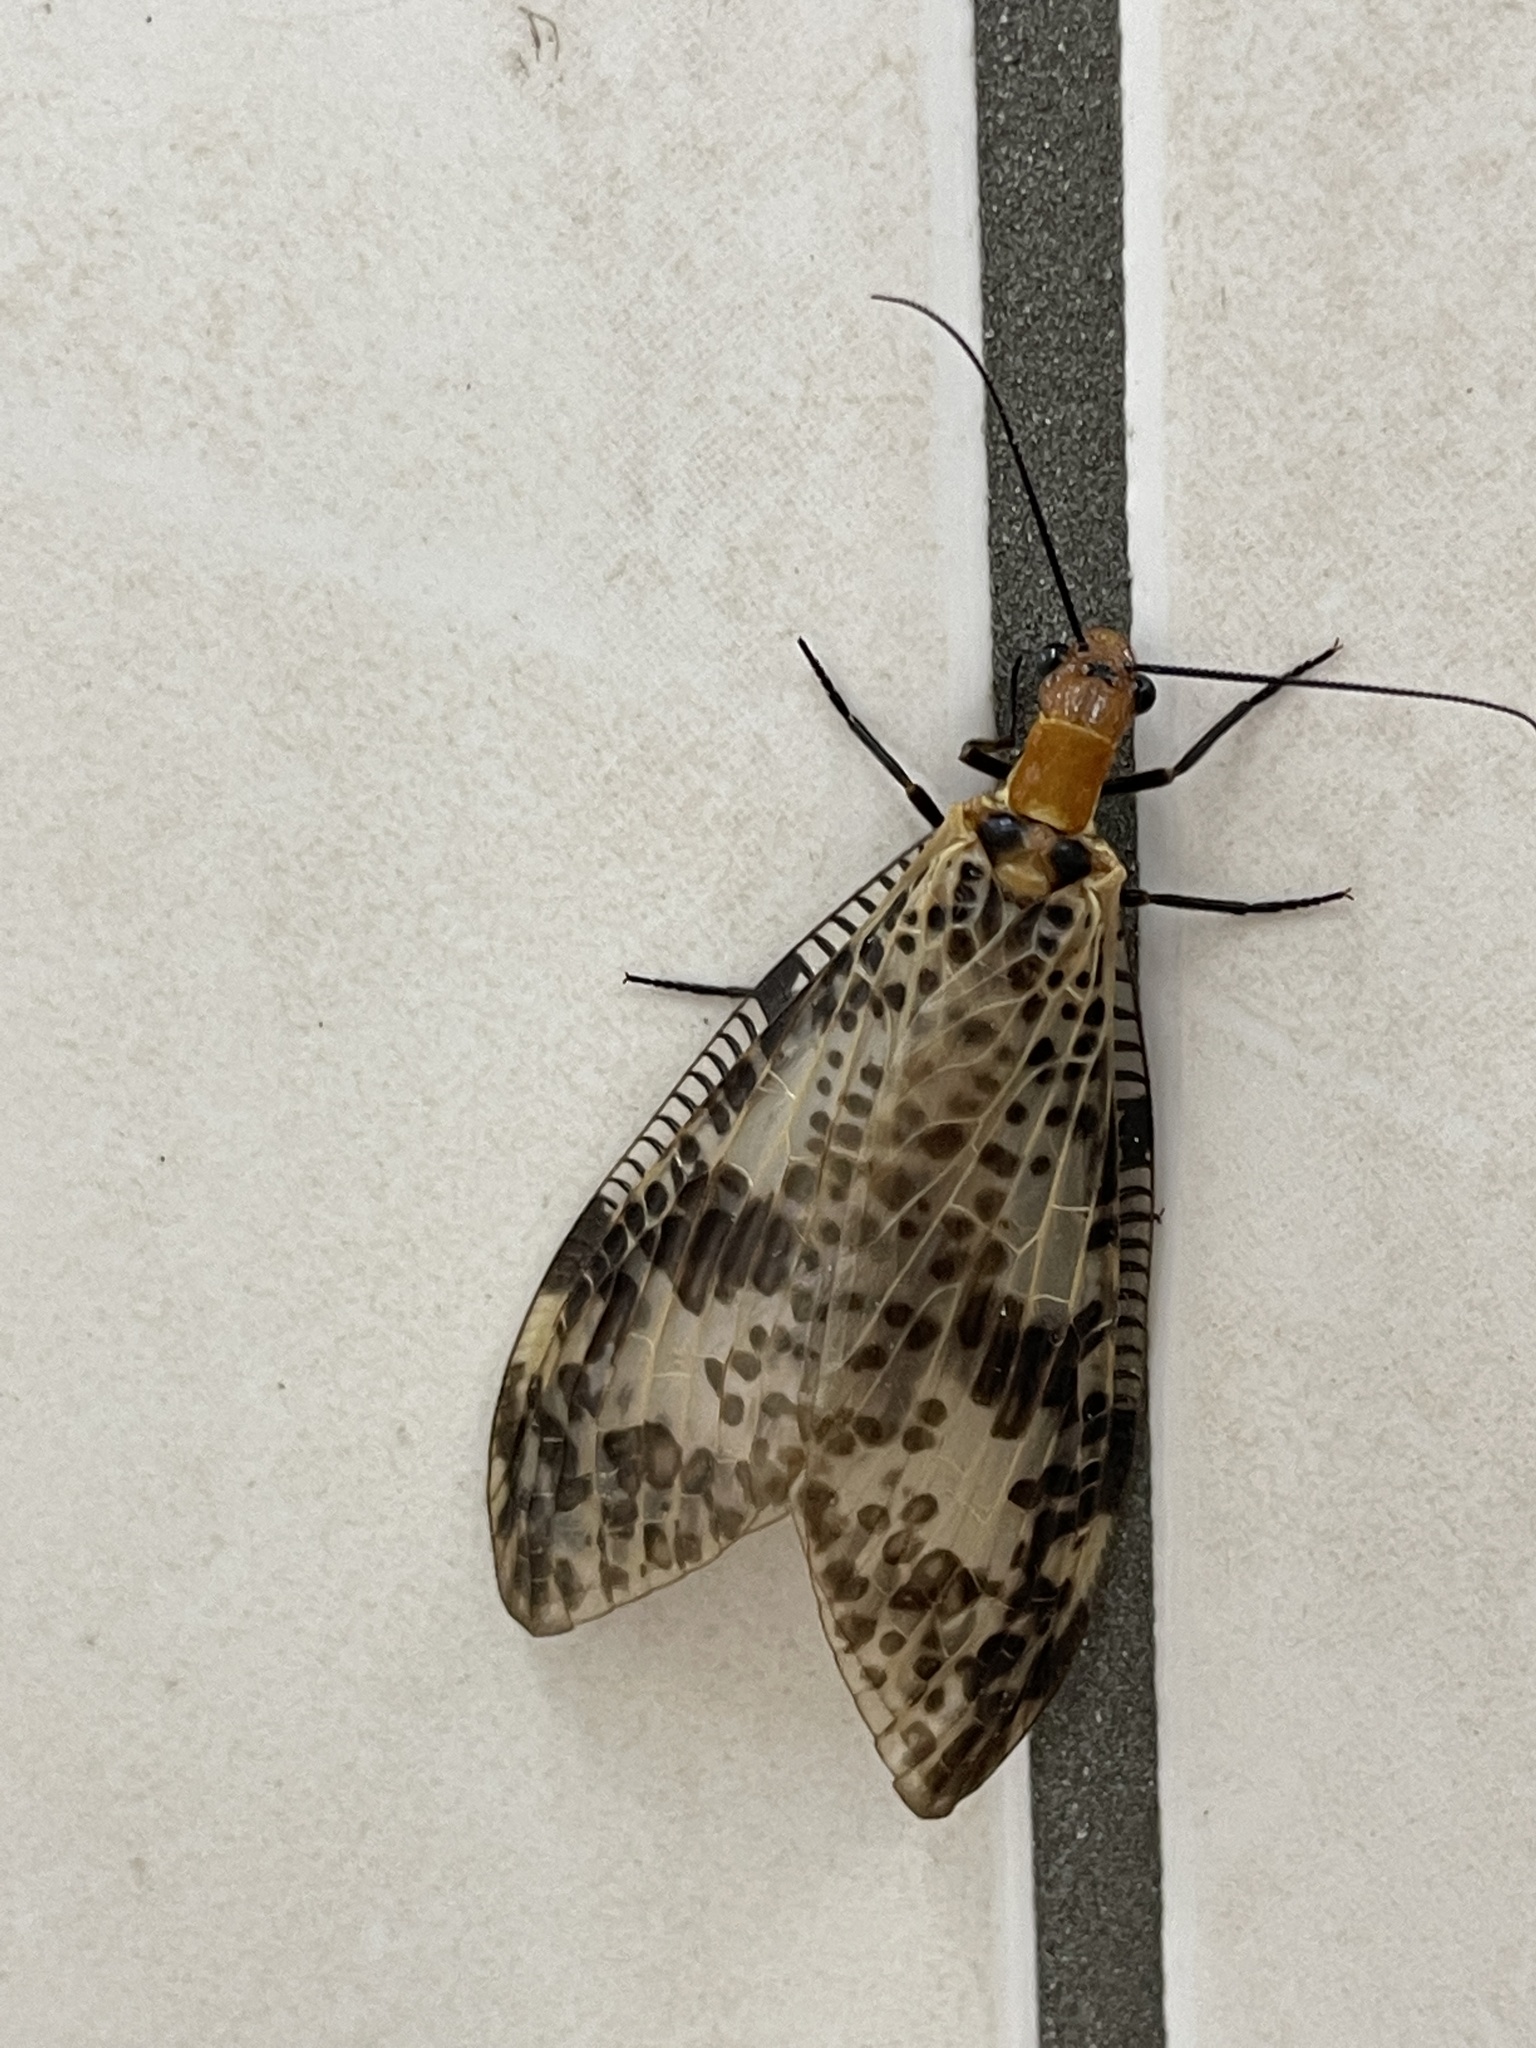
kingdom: Animalia
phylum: Arthropoda
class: Insecta
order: Megaloptera
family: Corydalidae
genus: Neochauliodes
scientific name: Neochauliodes formosanus
